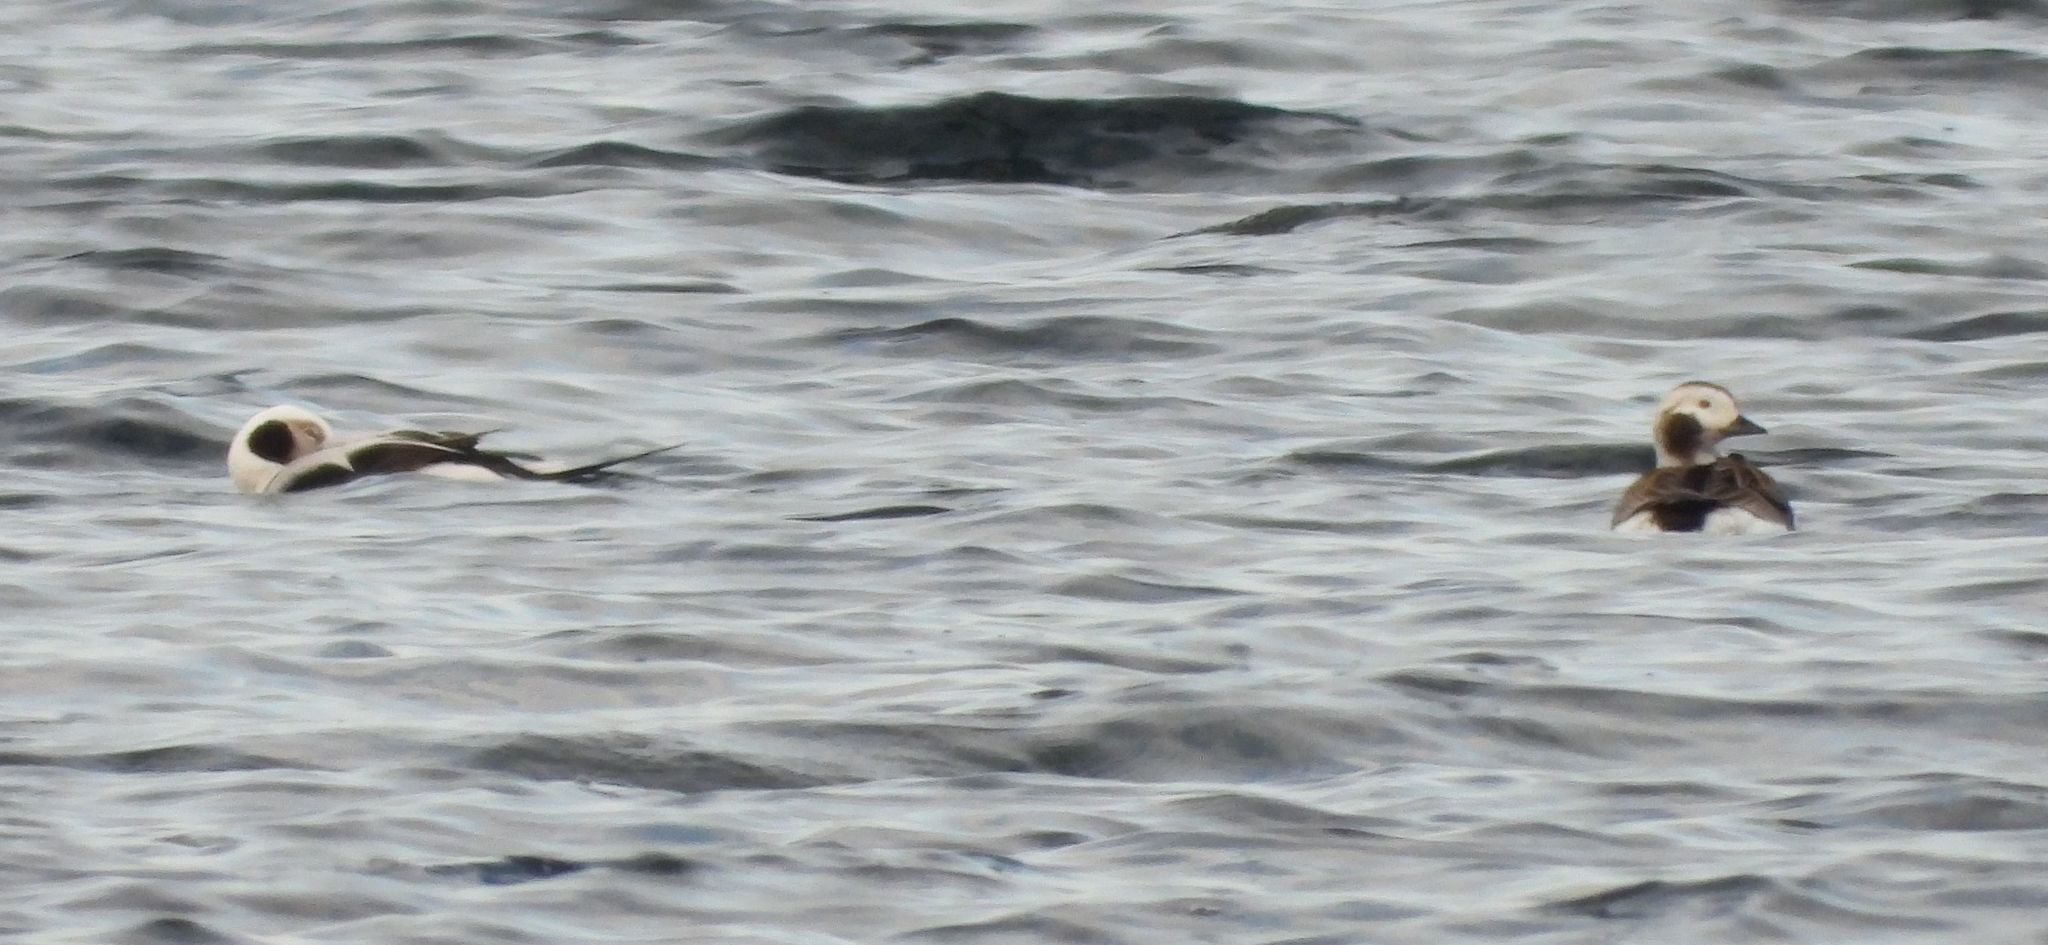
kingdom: Animalia
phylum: Chordata
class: Aves
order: Anseriformes
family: Anatidae
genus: Clangula
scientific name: Clangula hyemalis
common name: Long-tailed duck
